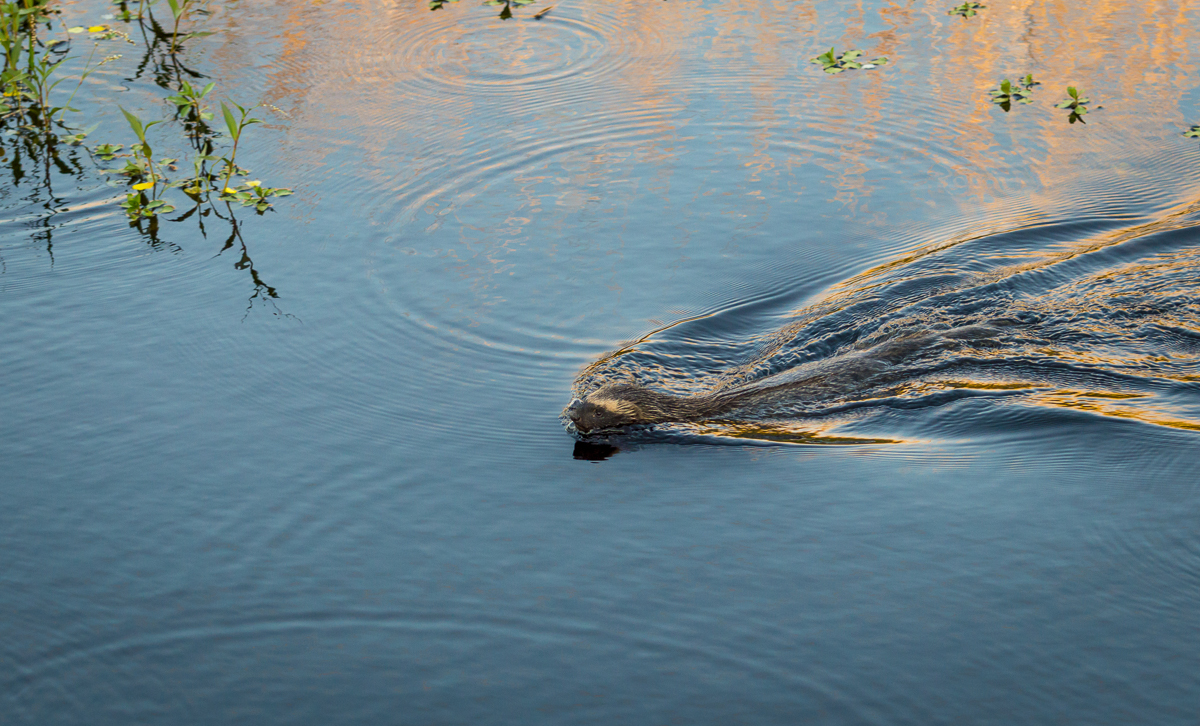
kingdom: Animalia
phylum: Chordata
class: Mammalia
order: Carnivora
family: Mustelidae
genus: Galictis
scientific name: Galictis cuja
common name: Lesser grison
